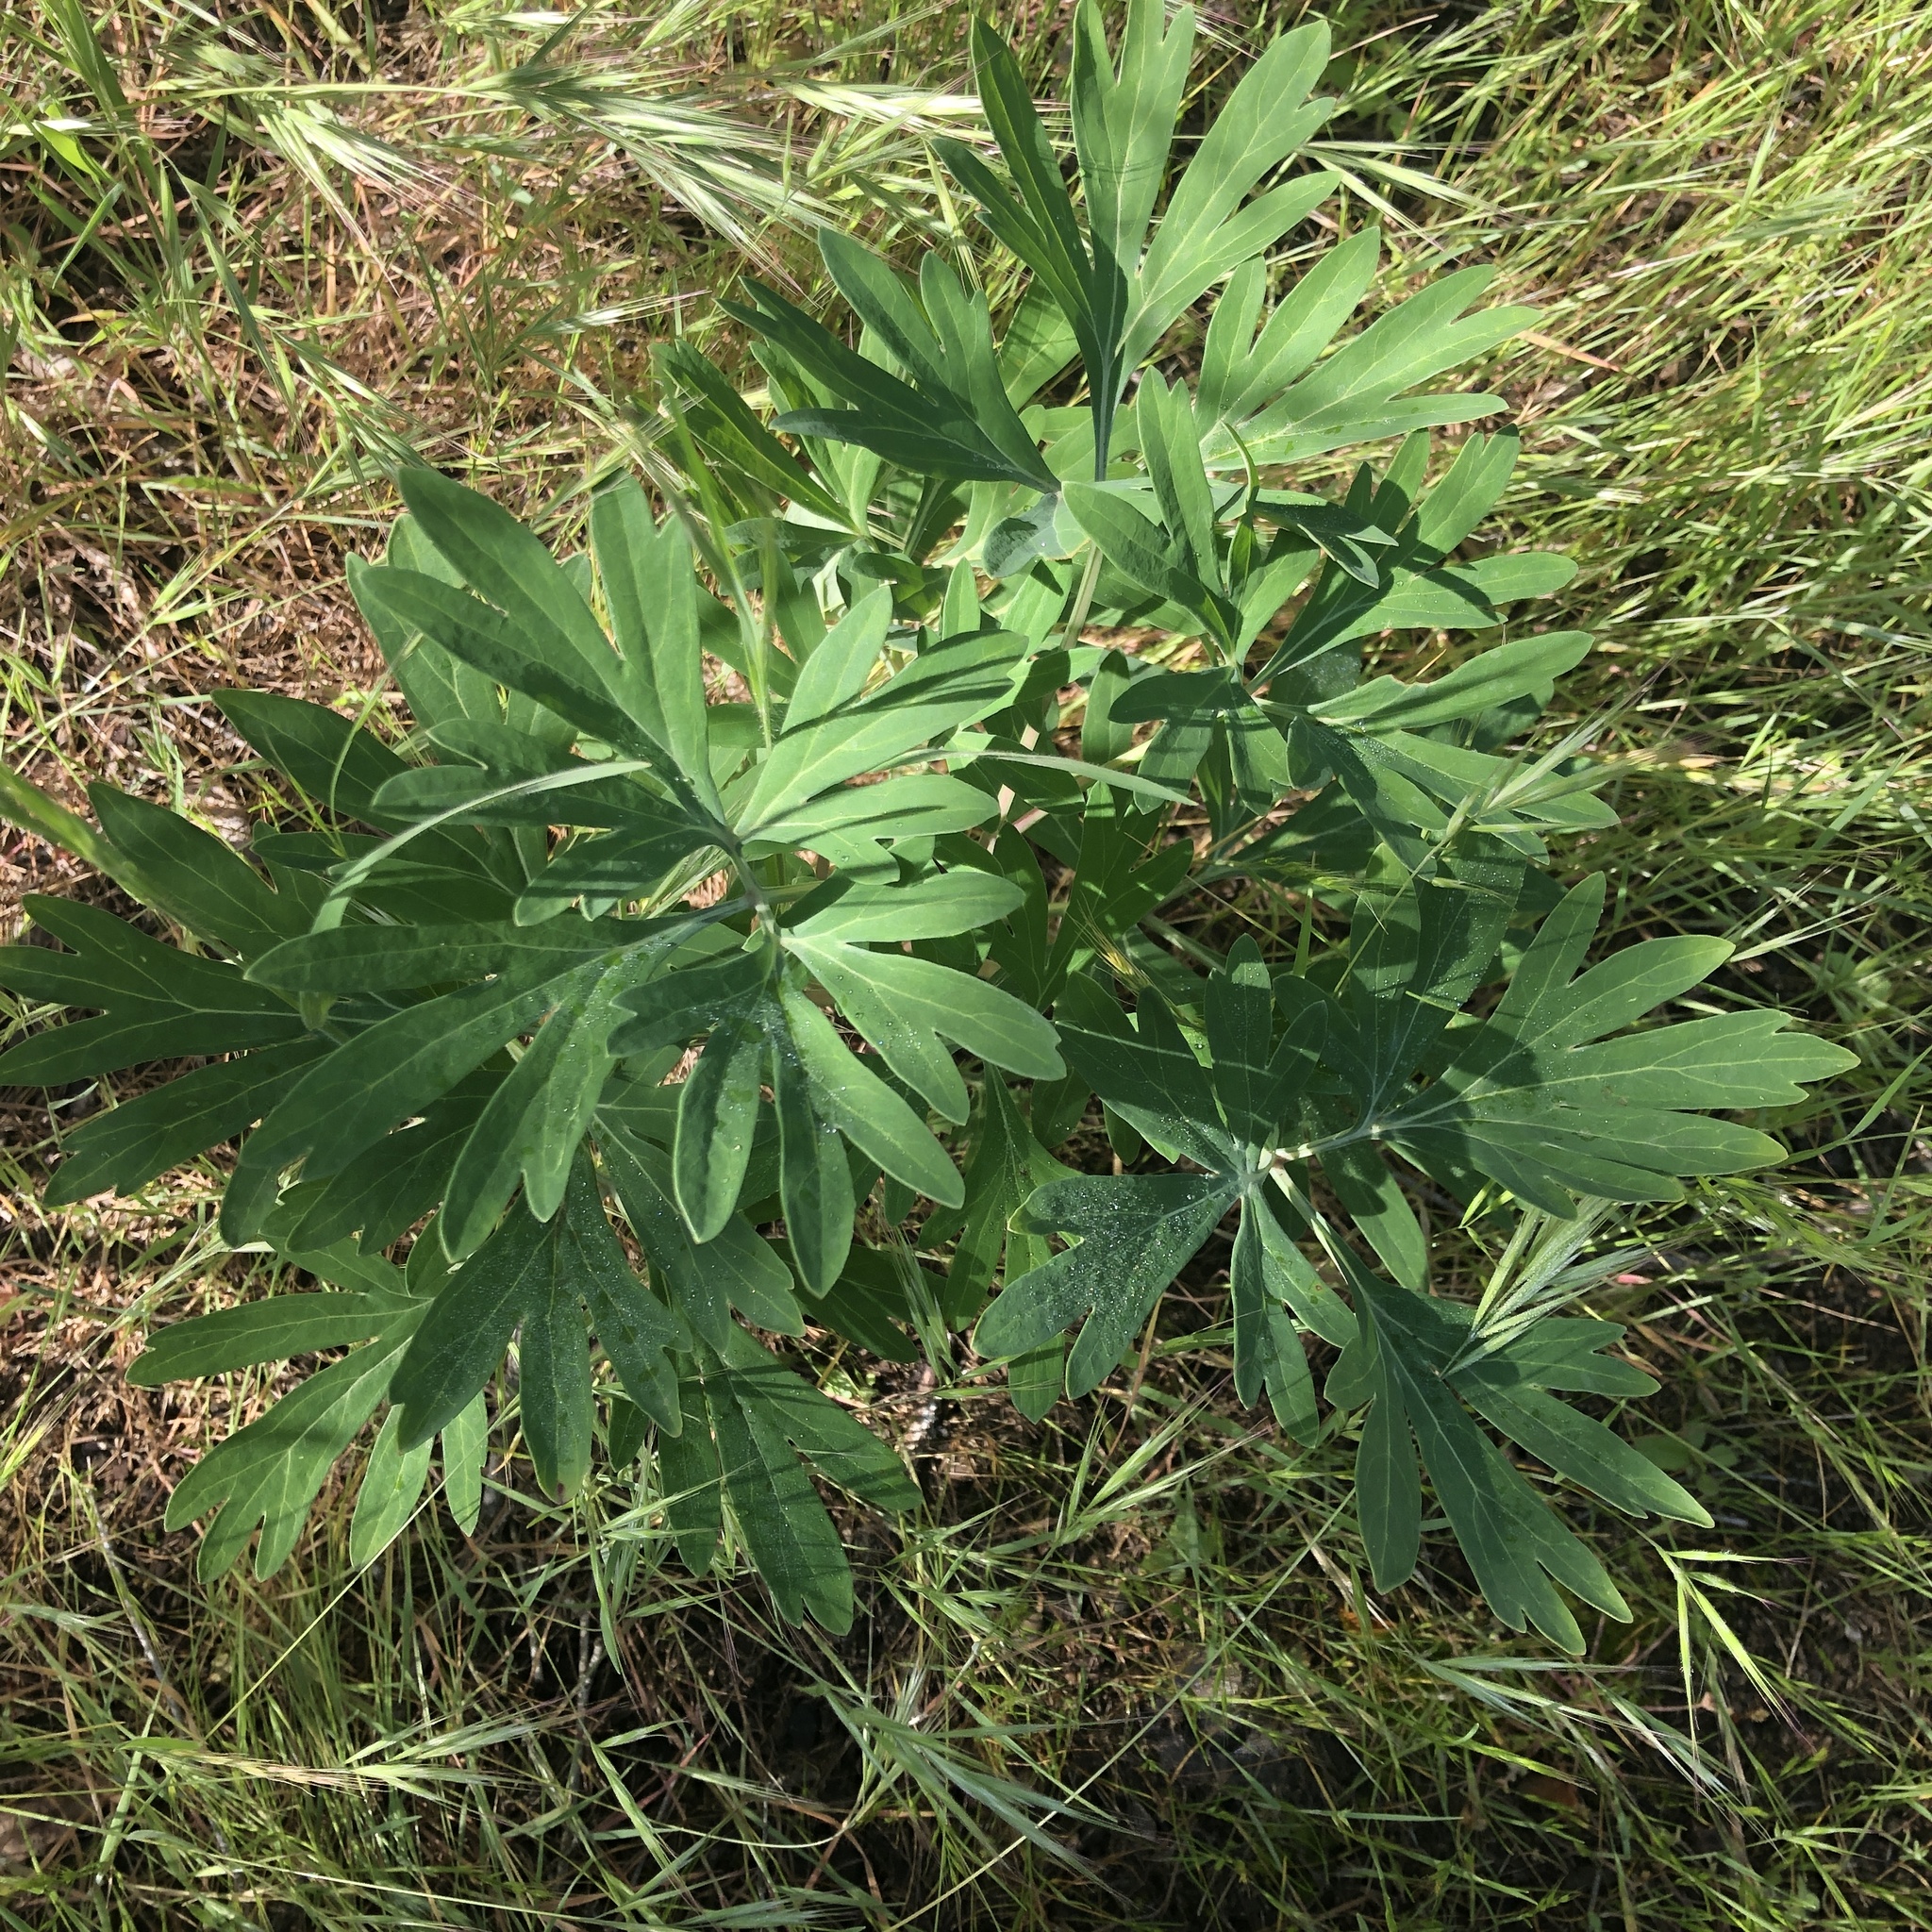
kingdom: Plantae
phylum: Tracheophyta
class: Magnoliopsida
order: Saxifragales
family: Paeoniaceae
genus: Paeonia
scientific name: Paeonia californica
